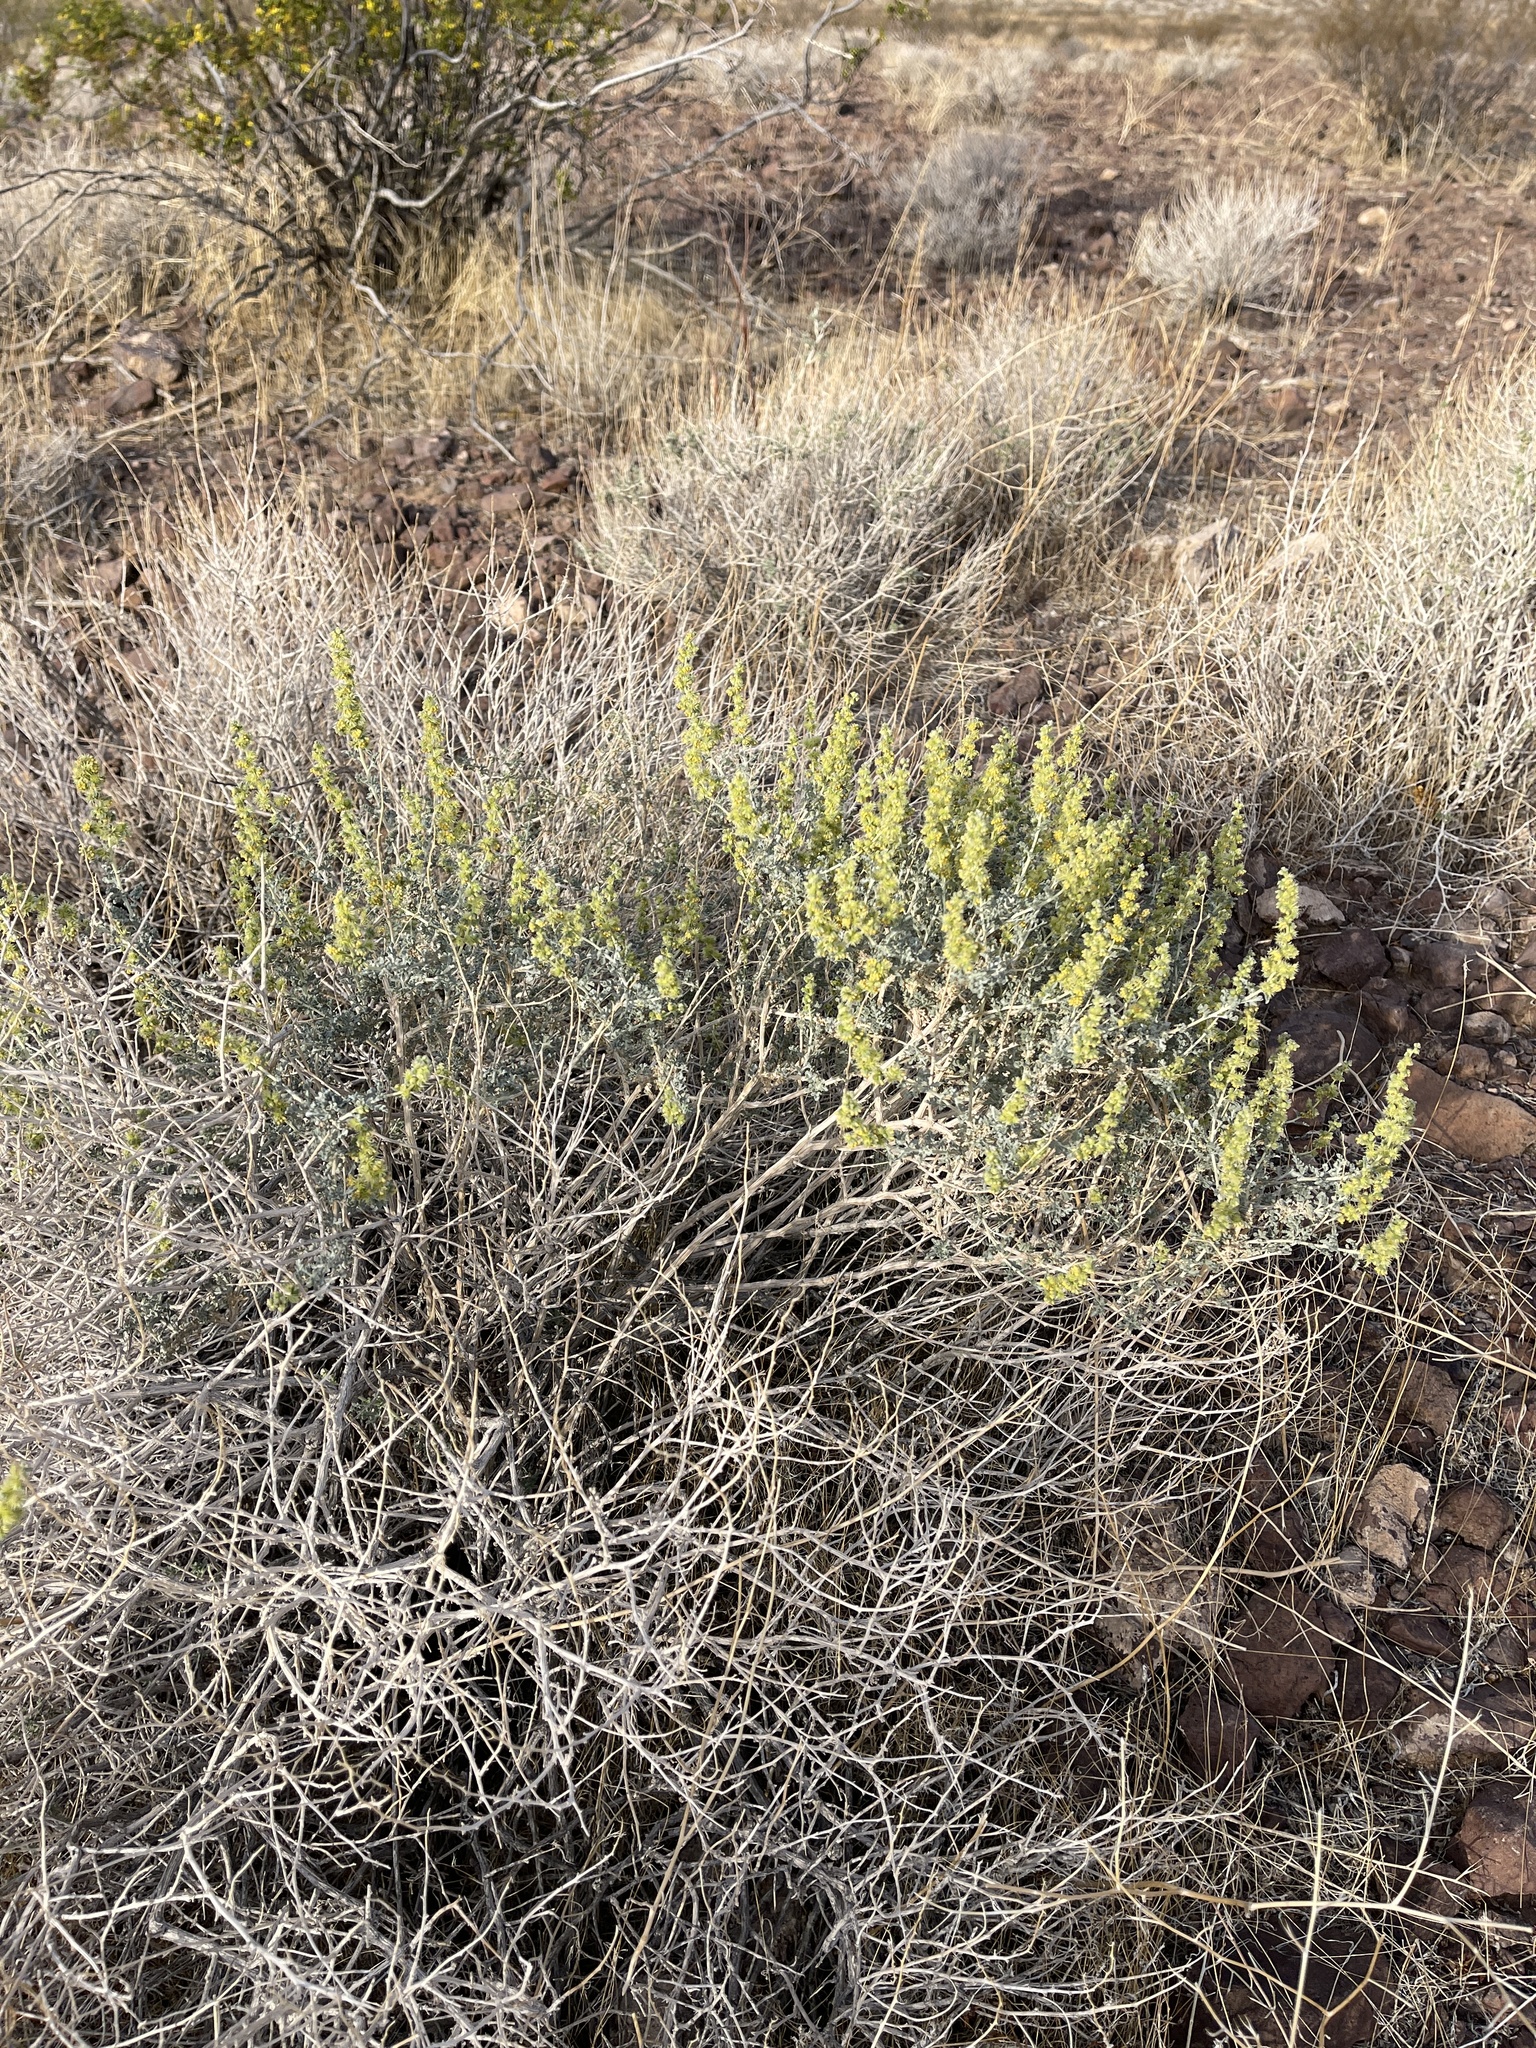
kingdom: Plantae
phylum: Tracheophyta
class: Magnoliopsida
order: Asterales
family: Asteraceae
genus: Ambrosia
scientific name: Ambrosia dumosa
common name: Bur-sage
